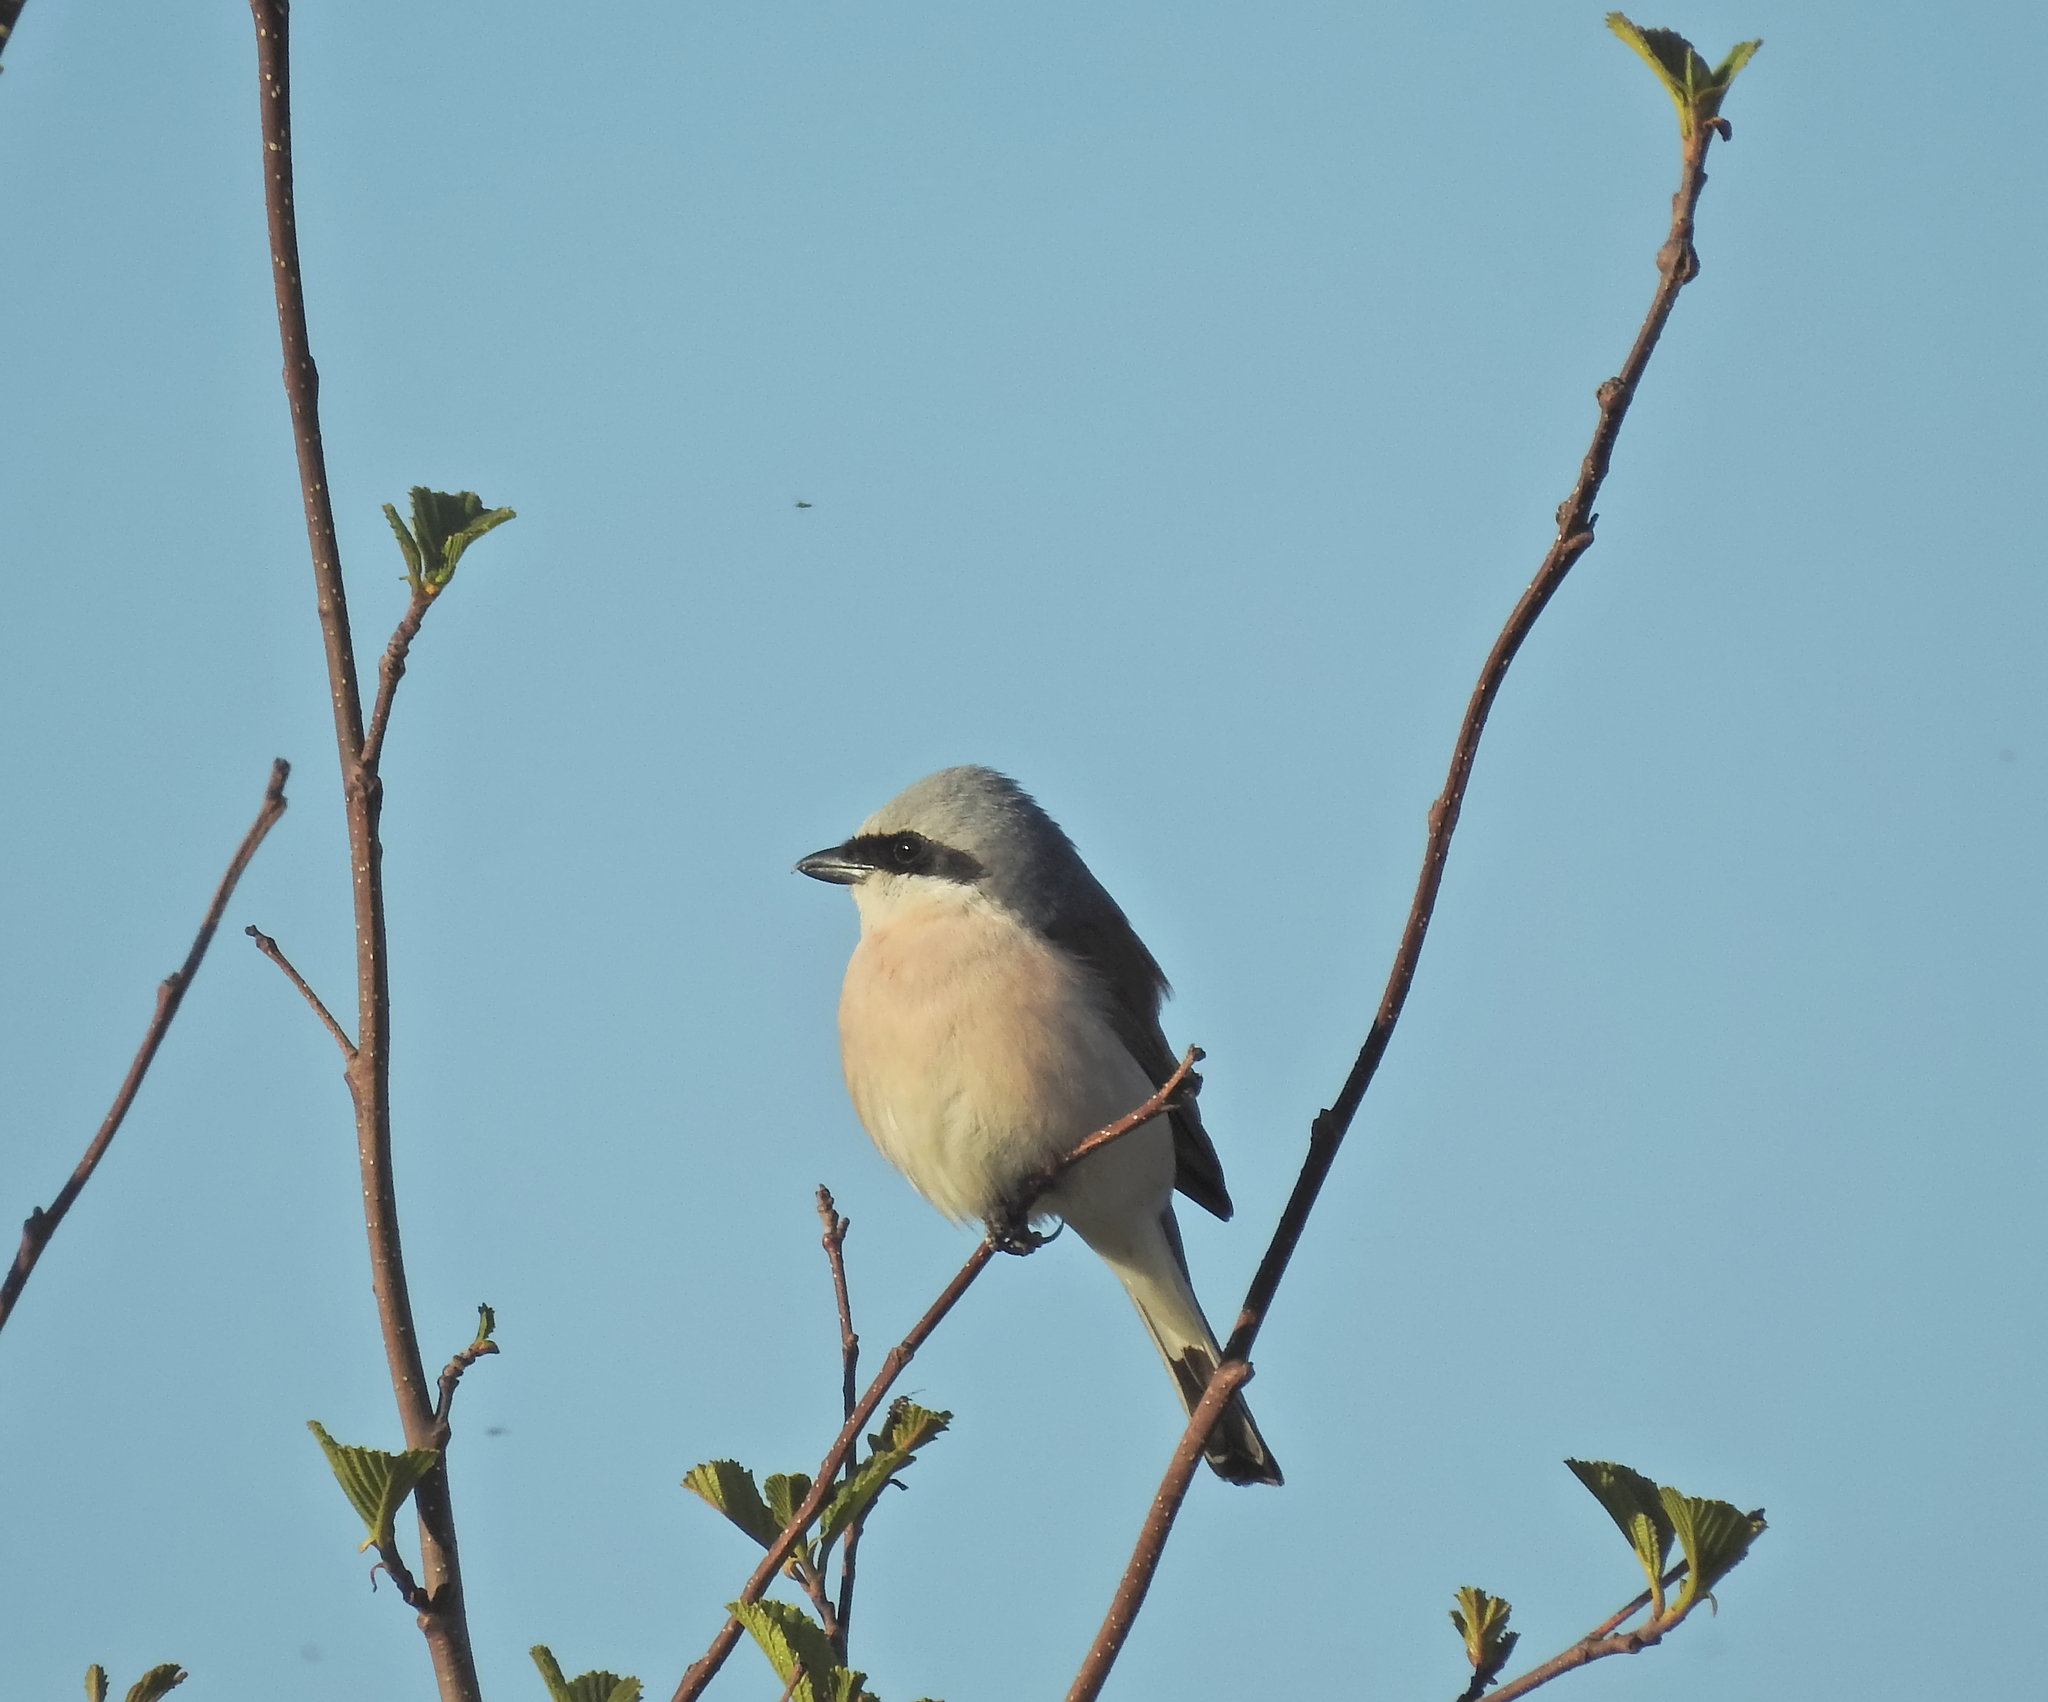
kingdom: Animalia
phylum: Chordata
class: Aves
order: Passeriformes
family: Laniidae
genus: Lanius
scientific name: Lanius collurio
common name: Red-backed shrike
